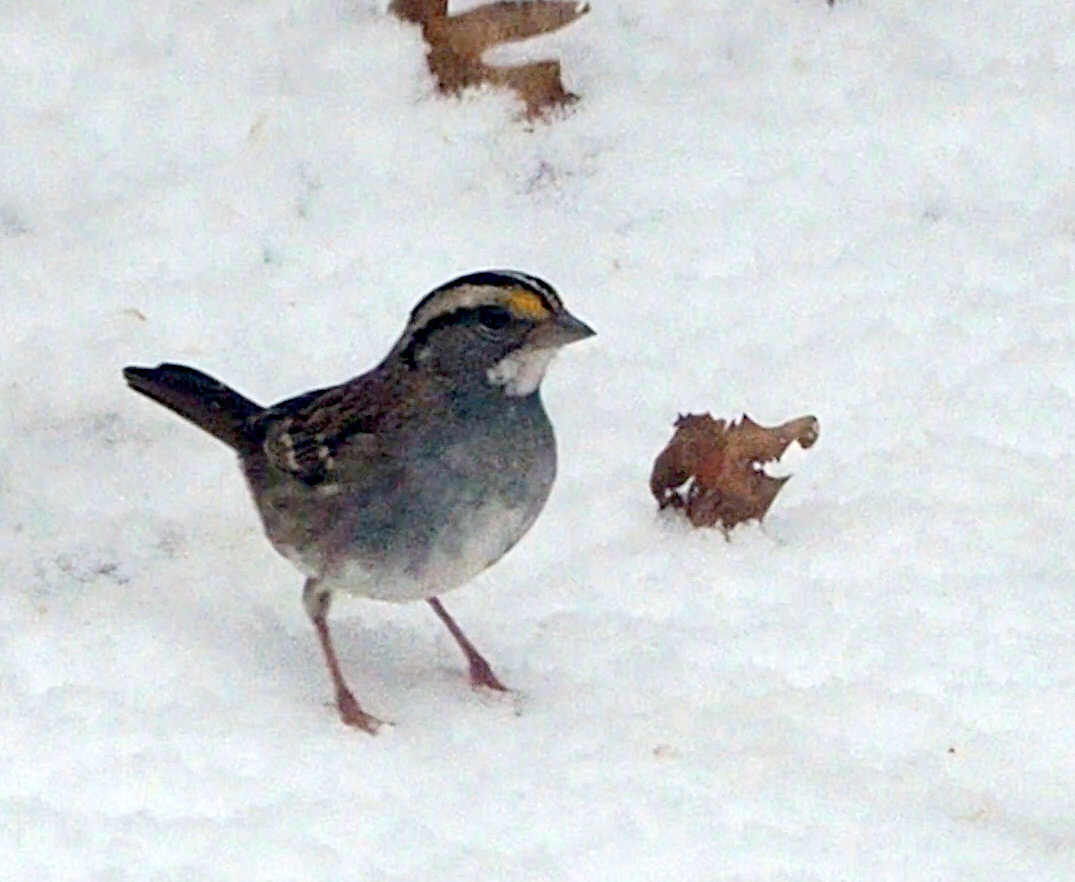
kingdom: Animalia
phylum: Chordata
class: Aves
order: Passeriformes
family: Passerellidae
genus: Zonotrichia
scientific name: Zonotrichia albicollis
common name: White-throated sparrow
